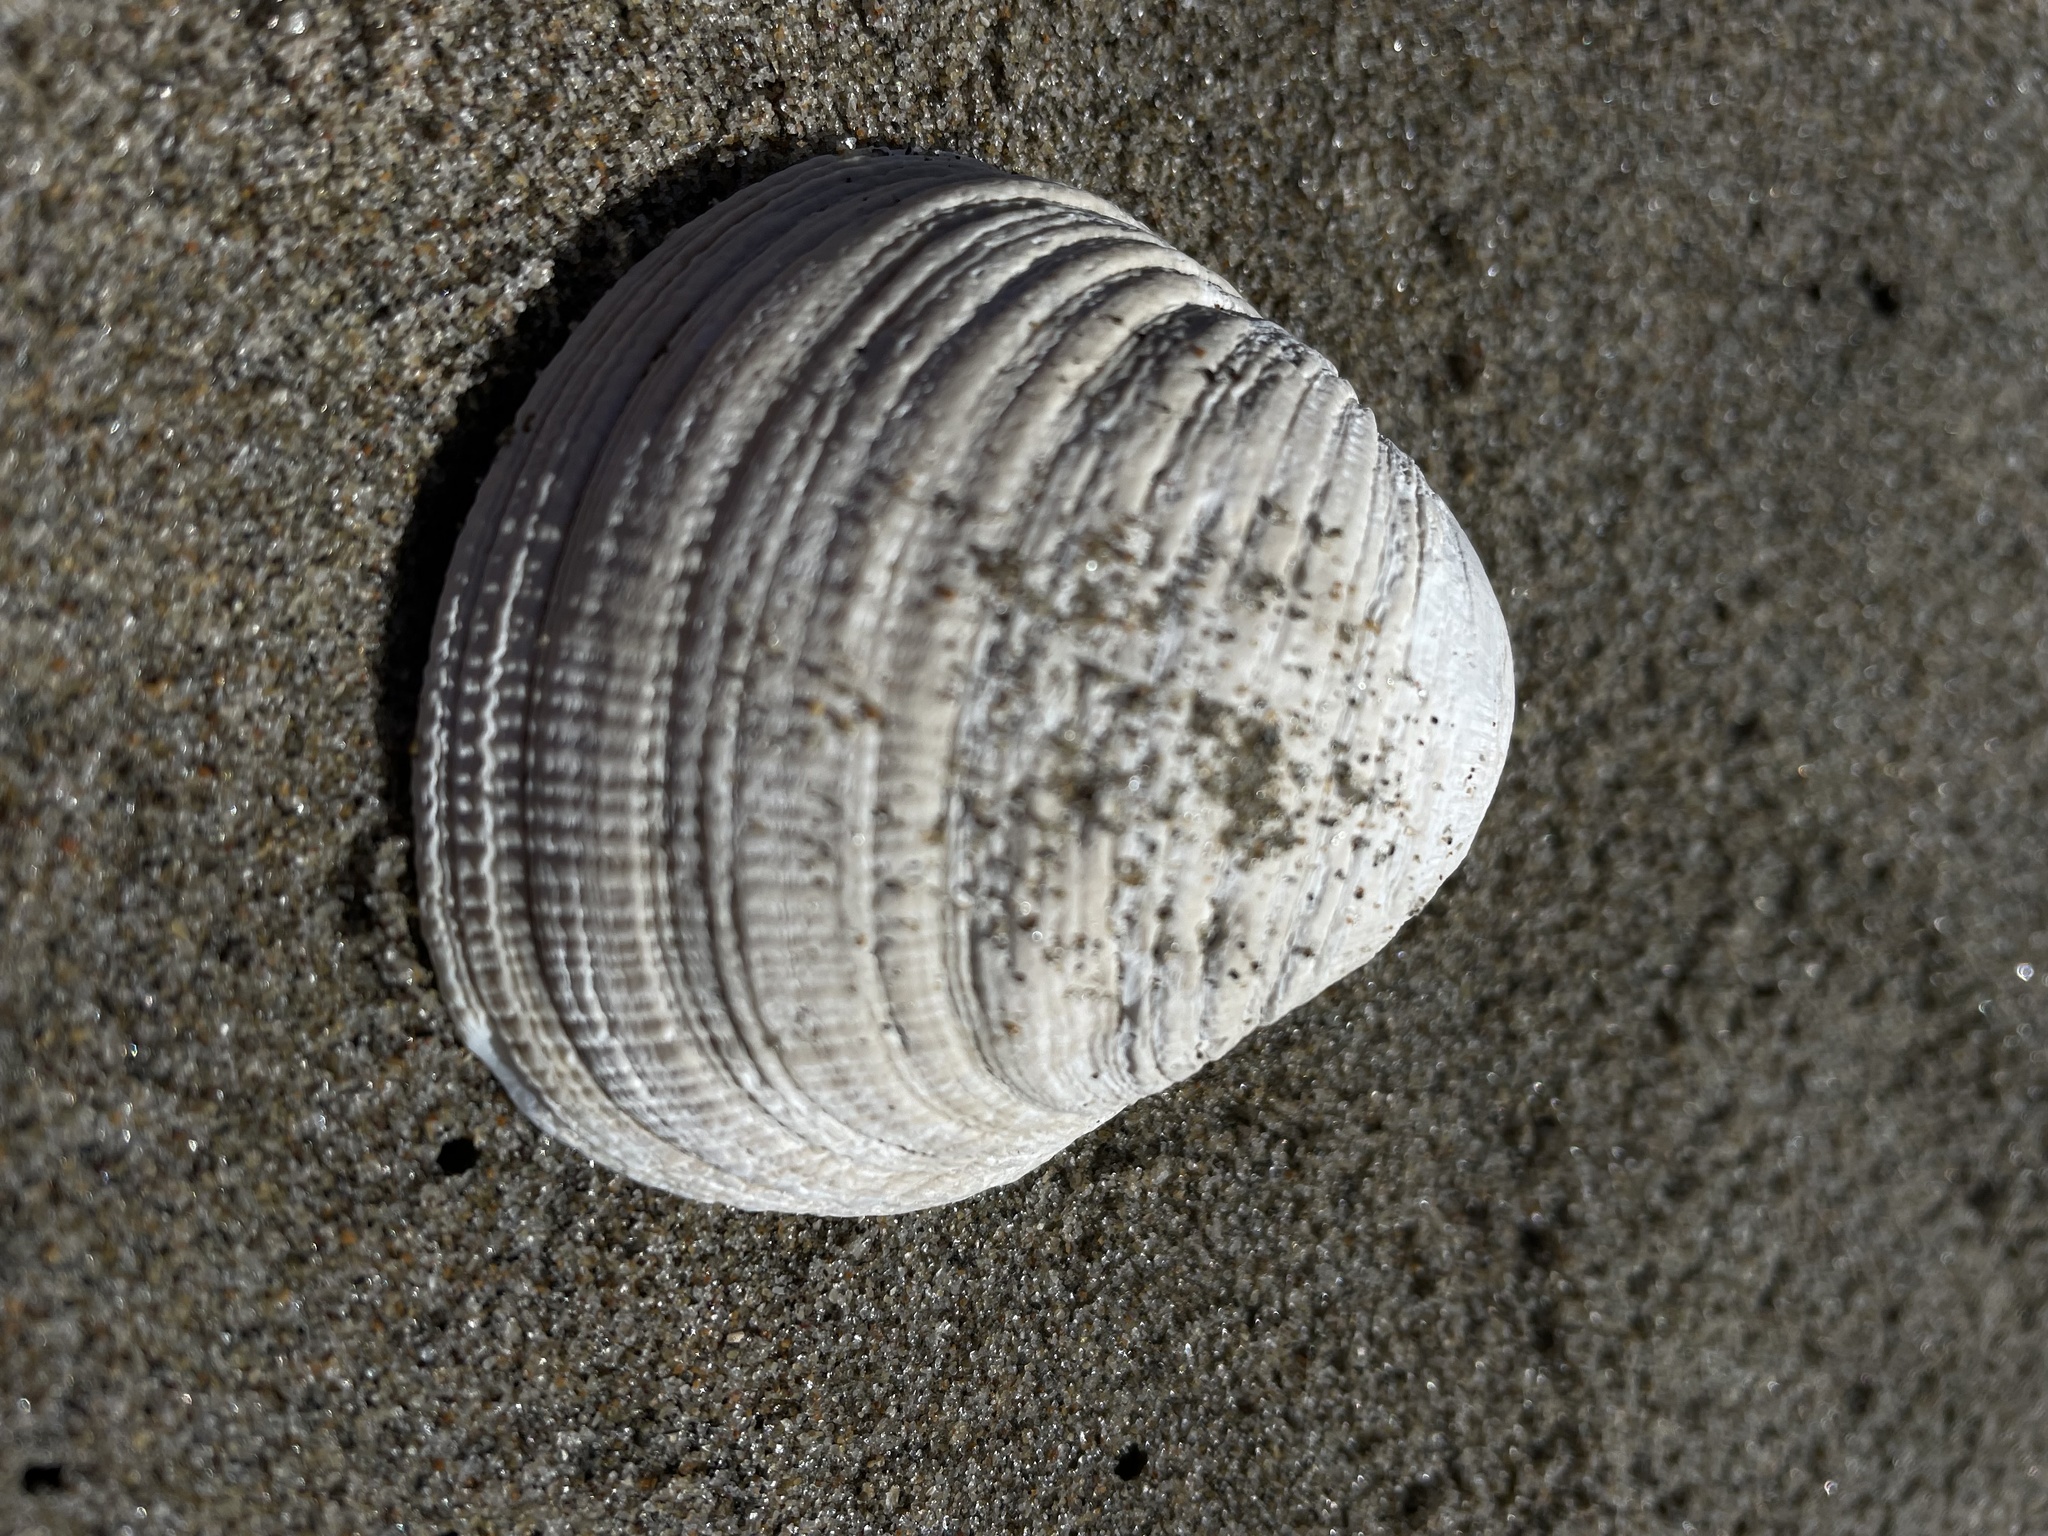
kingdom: Animalia
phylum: Mollusca
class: Bivalvia
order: Venerida
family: Veneridae
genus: Leukoma
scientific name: Leukoma staminea
